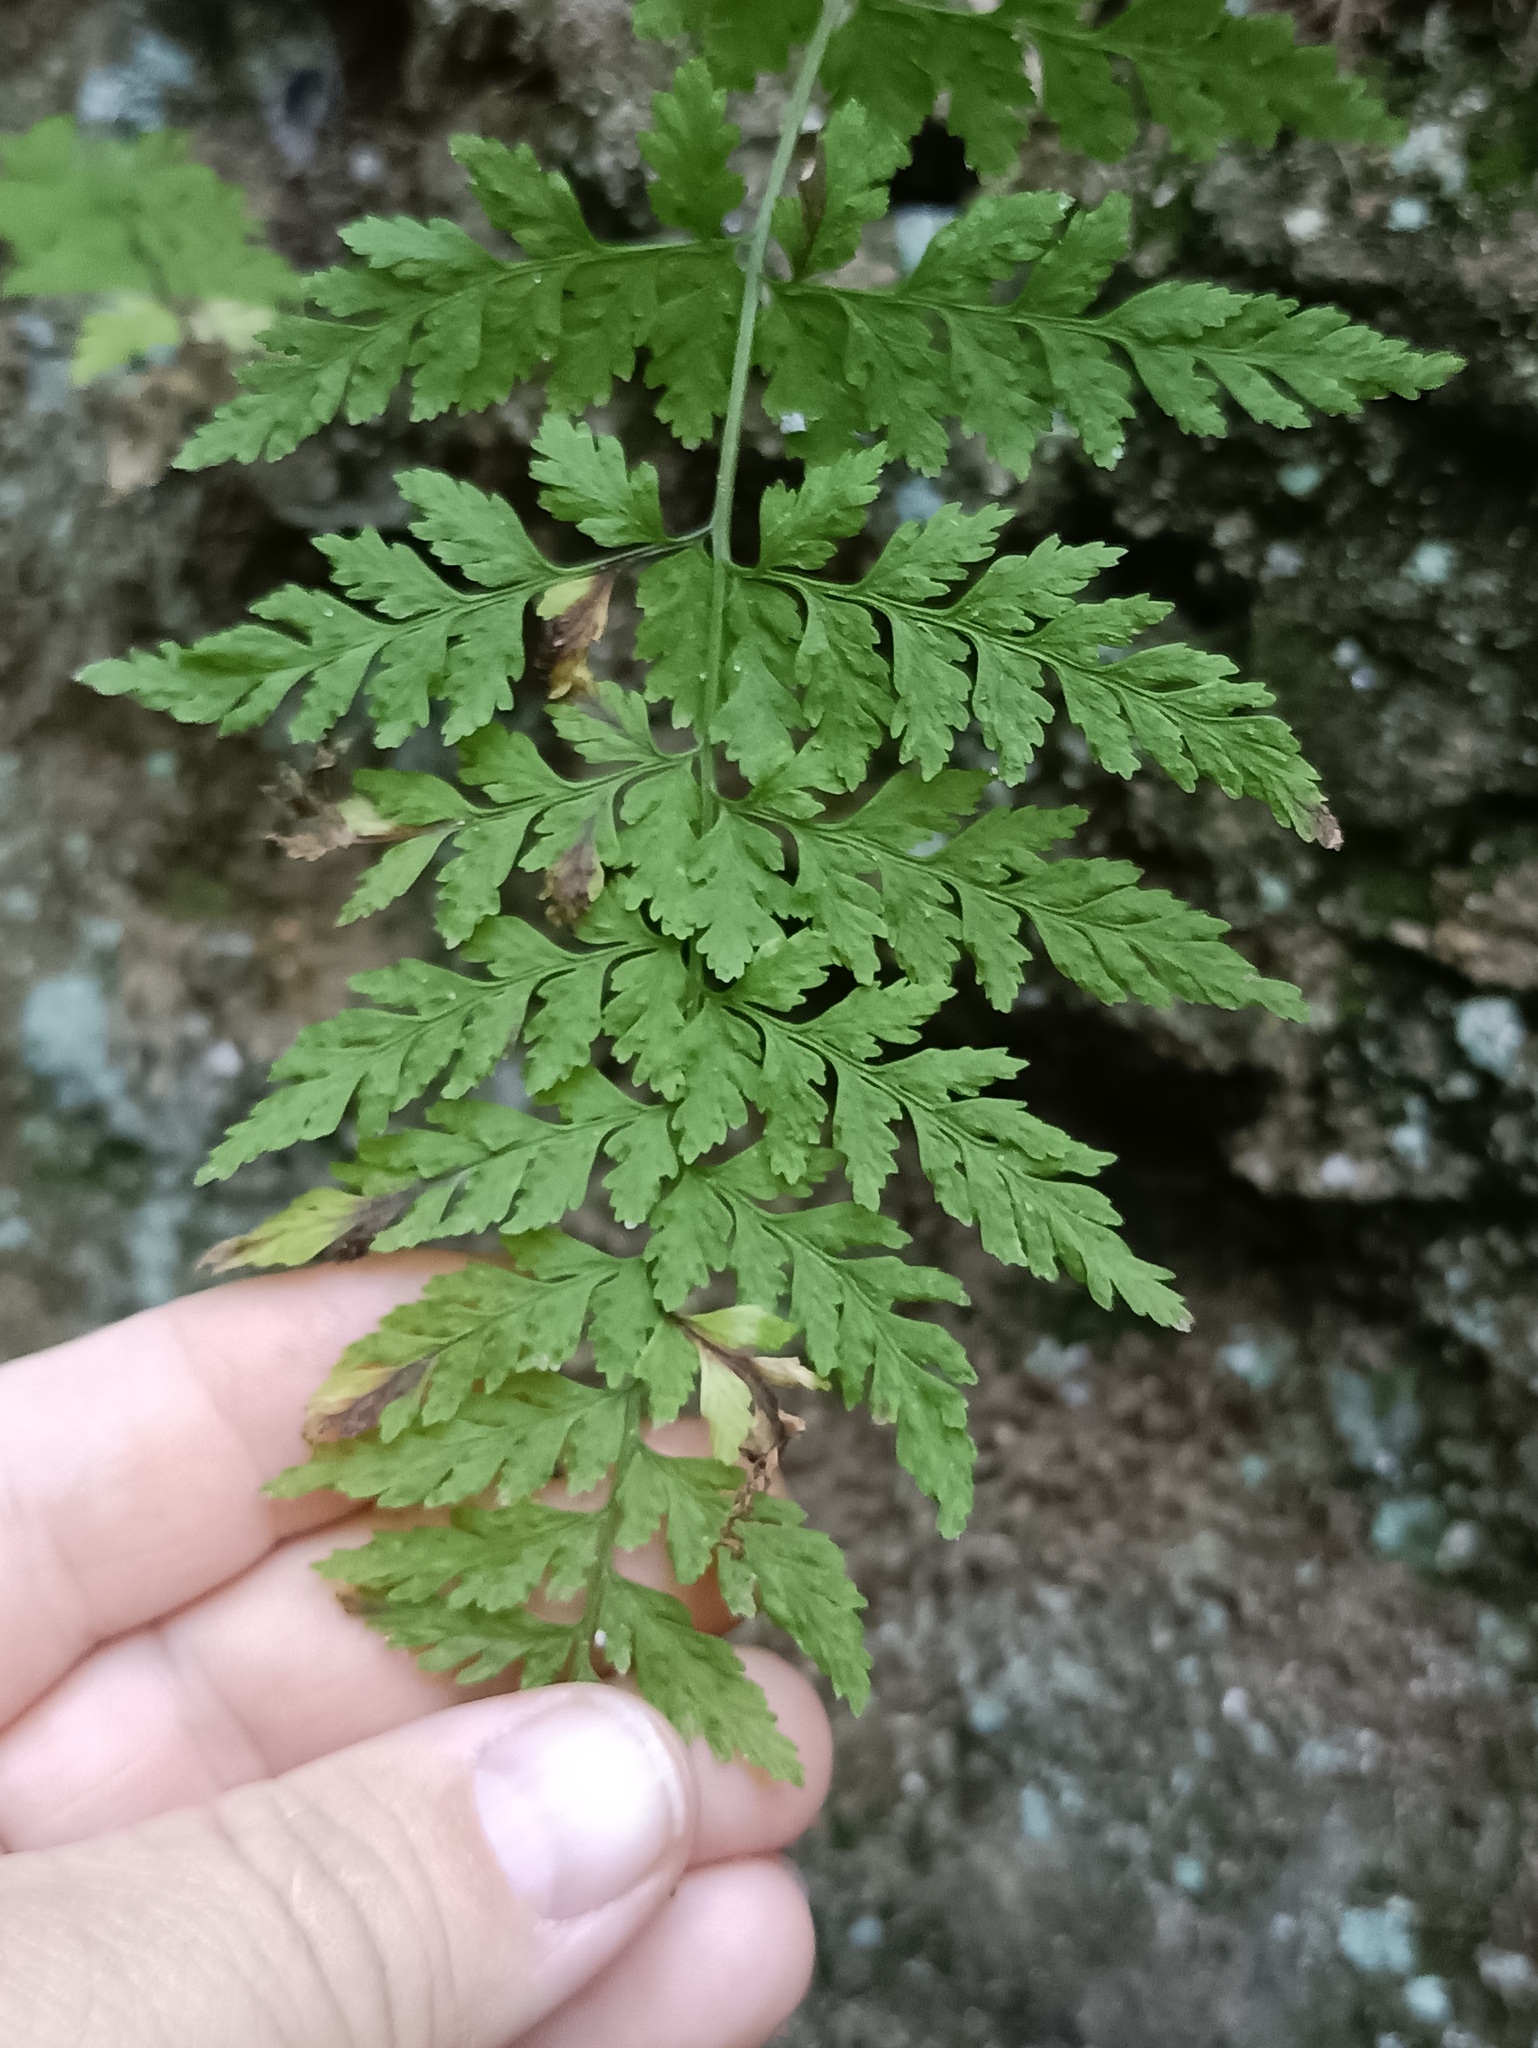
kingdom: Plantae
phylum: Tracheophyta
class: Polypodiopsida
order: Polypodiales
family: Cystopteridaceae
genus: Cystopteris
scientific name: Cystopteris fragilis
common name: Brittle bladder fern
